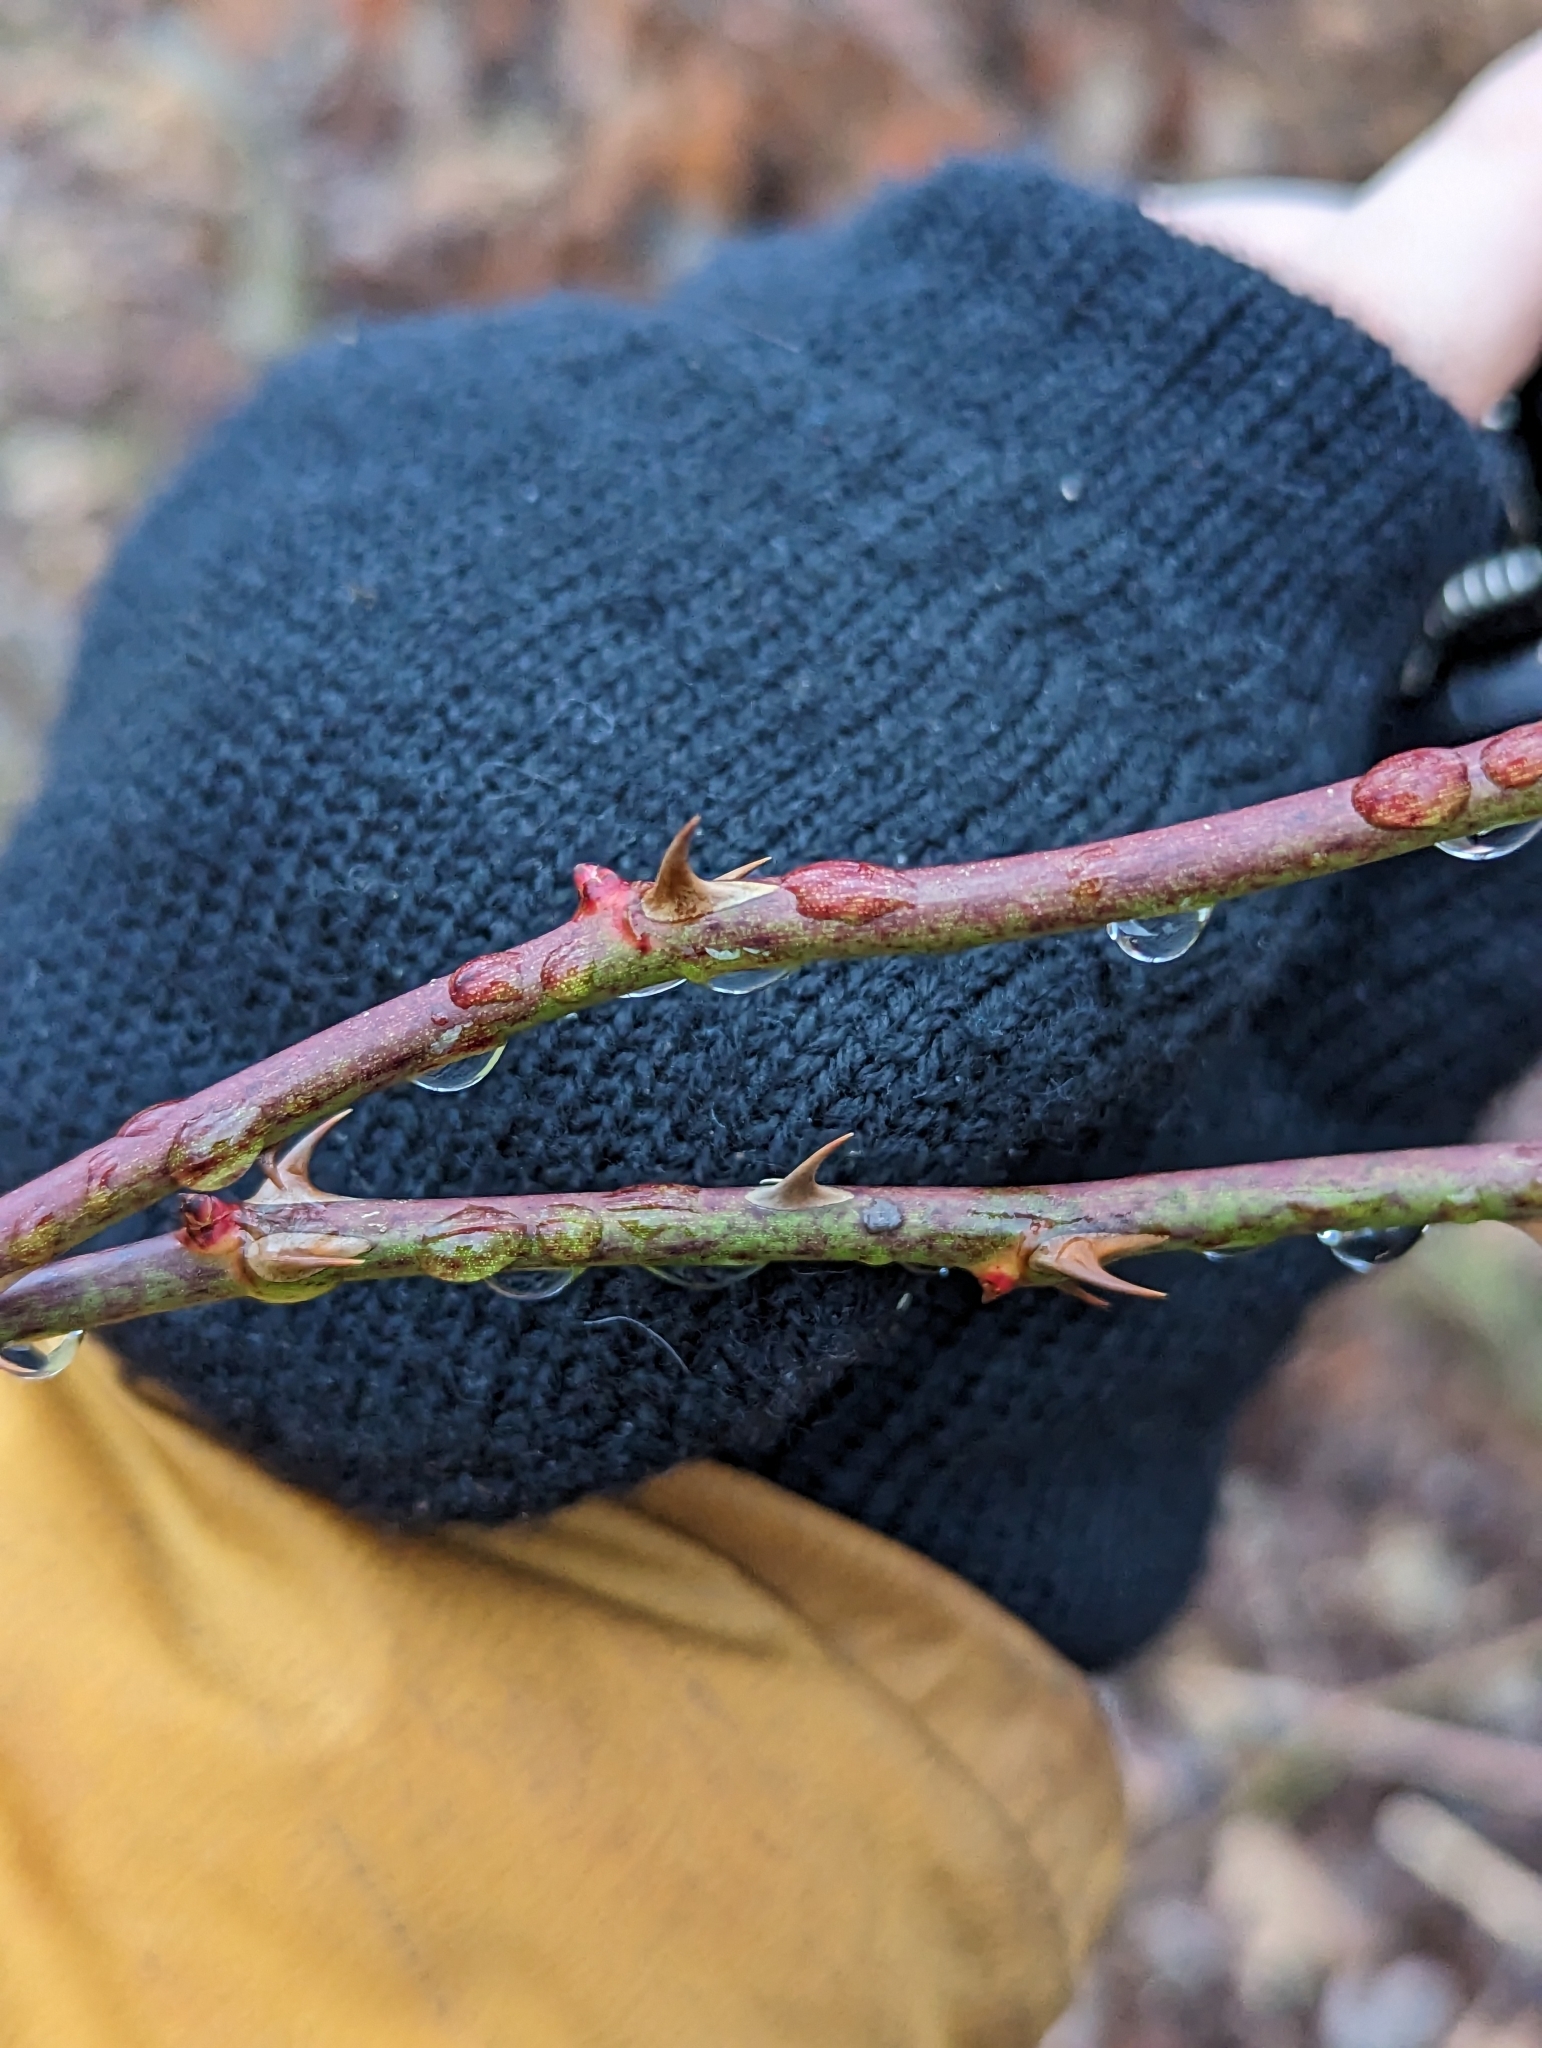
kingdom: Plantae
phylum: Tracheophyta
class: Magnoliopsida
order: Rosales
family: Rosaceae
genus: Rosa
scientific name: Rosa multiflora
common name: Multiflora rose
